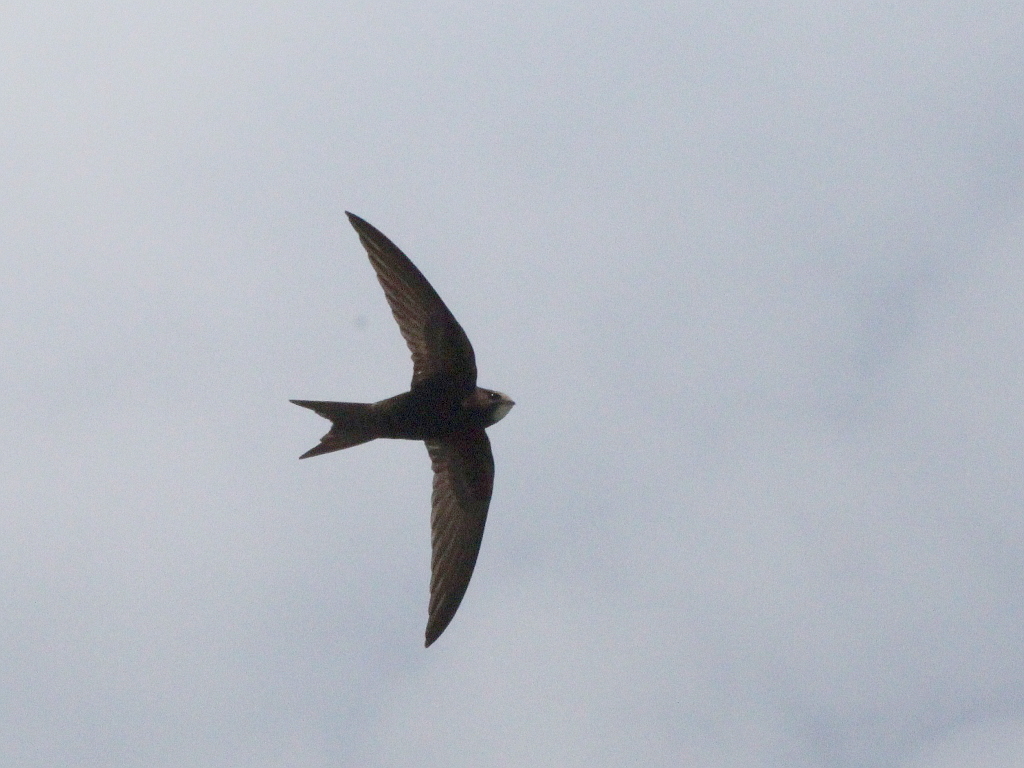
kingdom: Animalia
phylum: Chordata
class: Aves
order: Apodiformes
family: Apodidae
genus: Apus
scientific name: Apus apus
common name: Common swift
